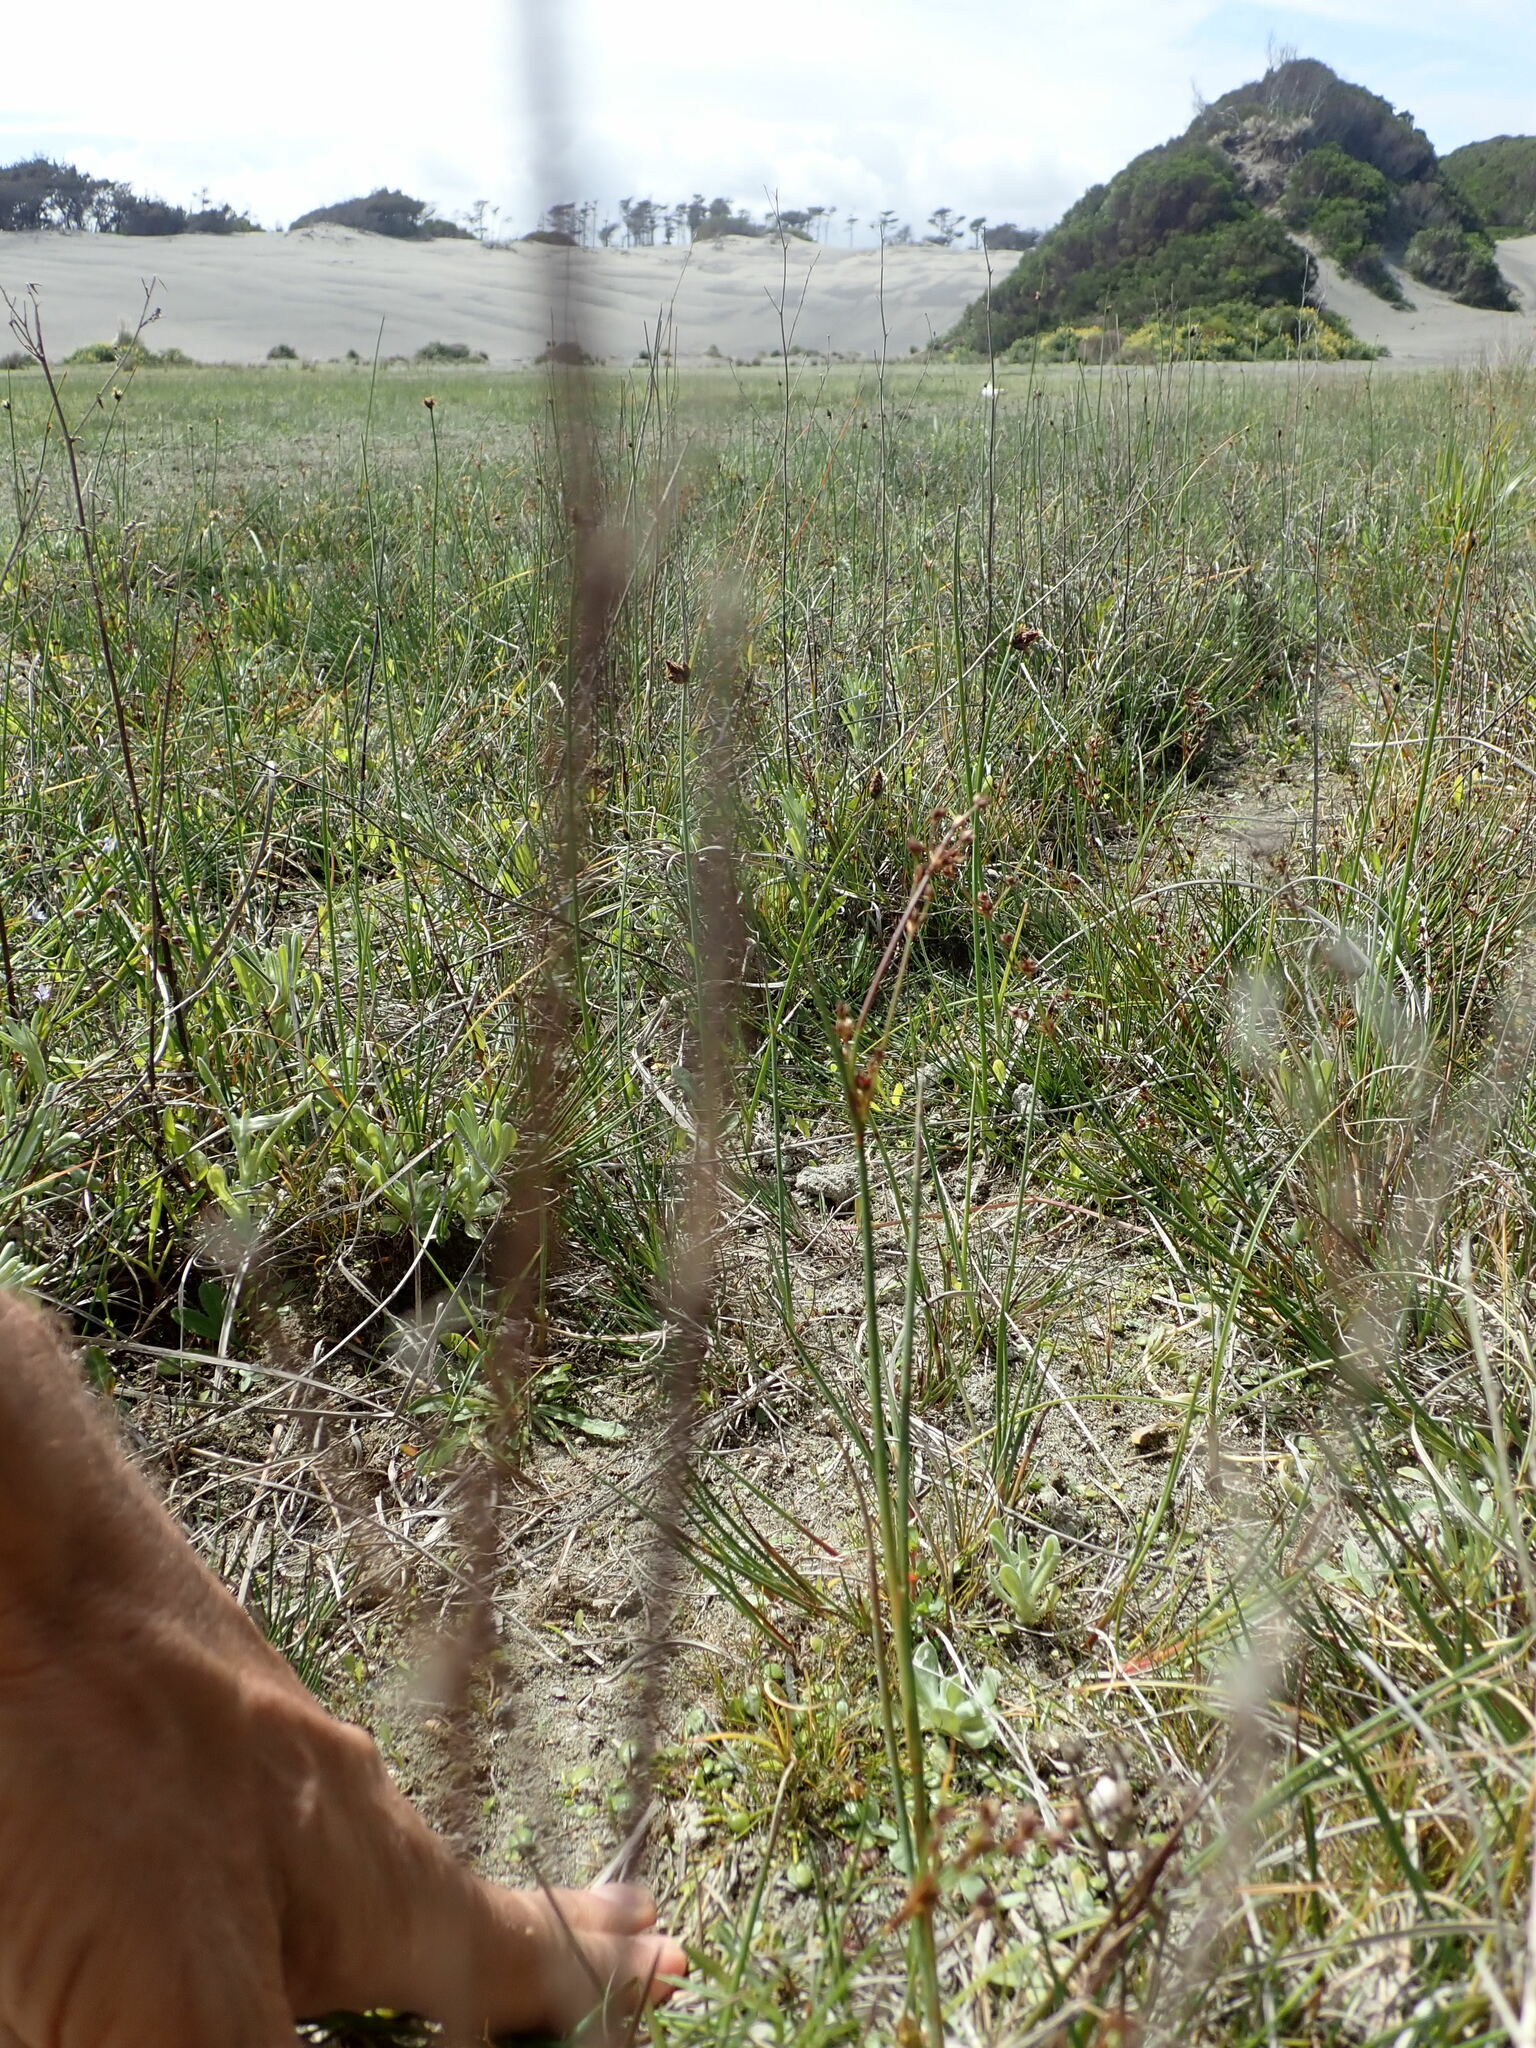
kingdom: Plantae
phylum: Tracheophyta
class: Magnoliopsida
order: Asterales
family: Goodeniaceae
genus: Goodenia
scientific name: Goodenia heenanii
